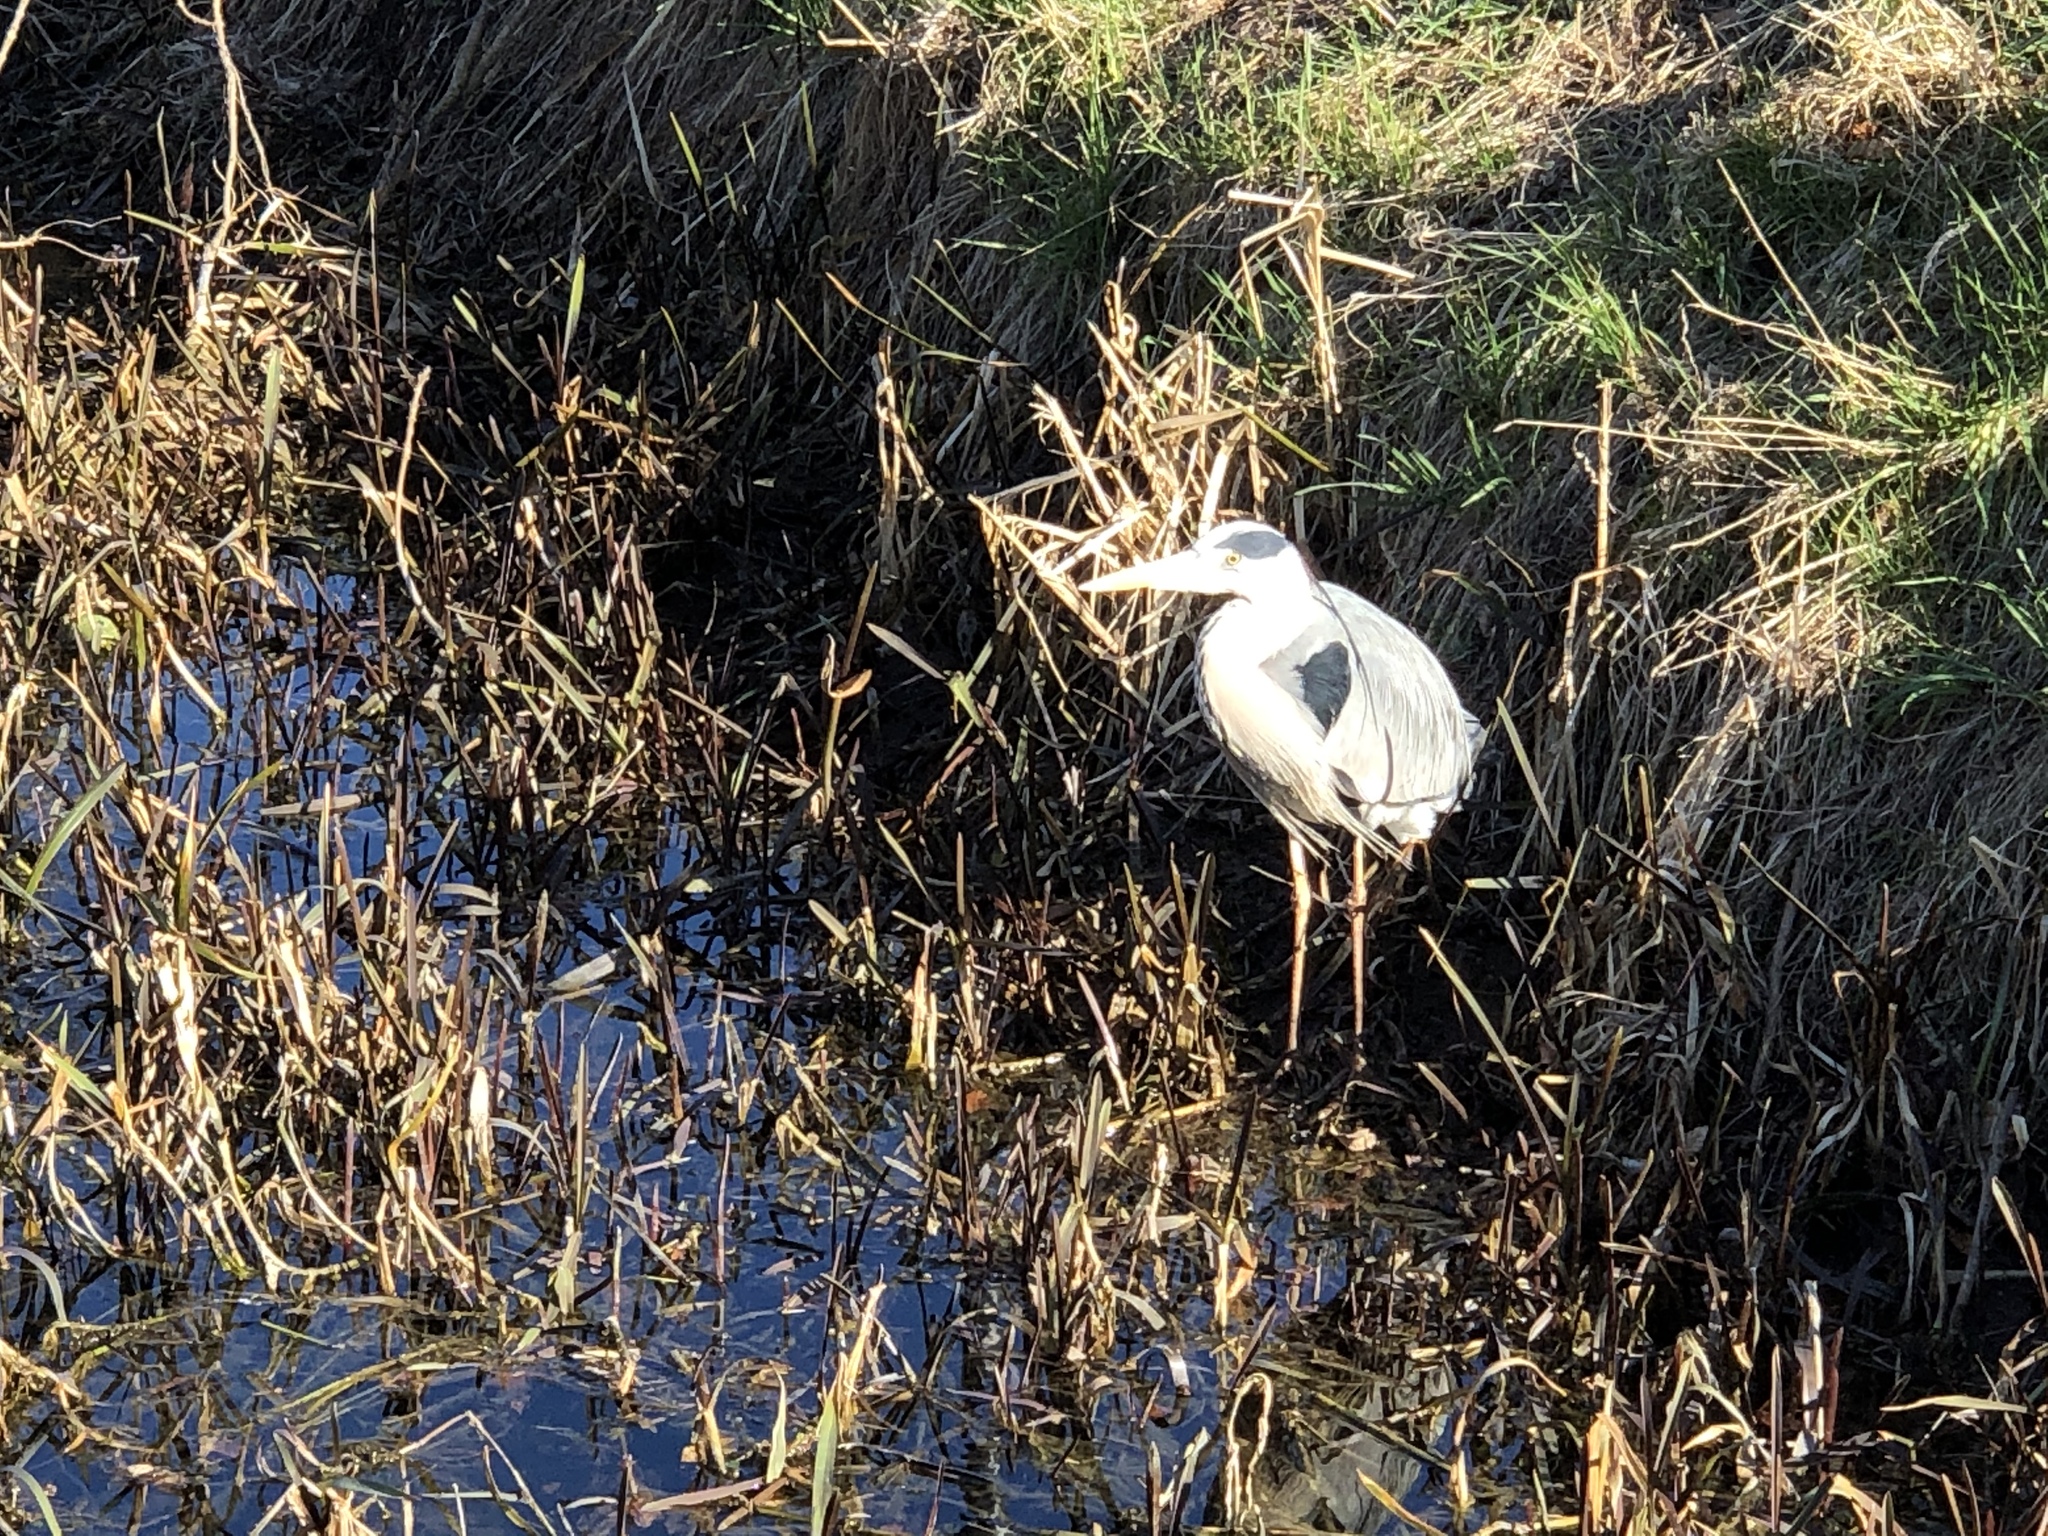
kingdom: Animalia
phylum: Chordata
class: Aves
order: Pelecaniformes
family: Ardeidae
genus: Ardea
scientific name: Ardea cinerea
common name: Grey heron
